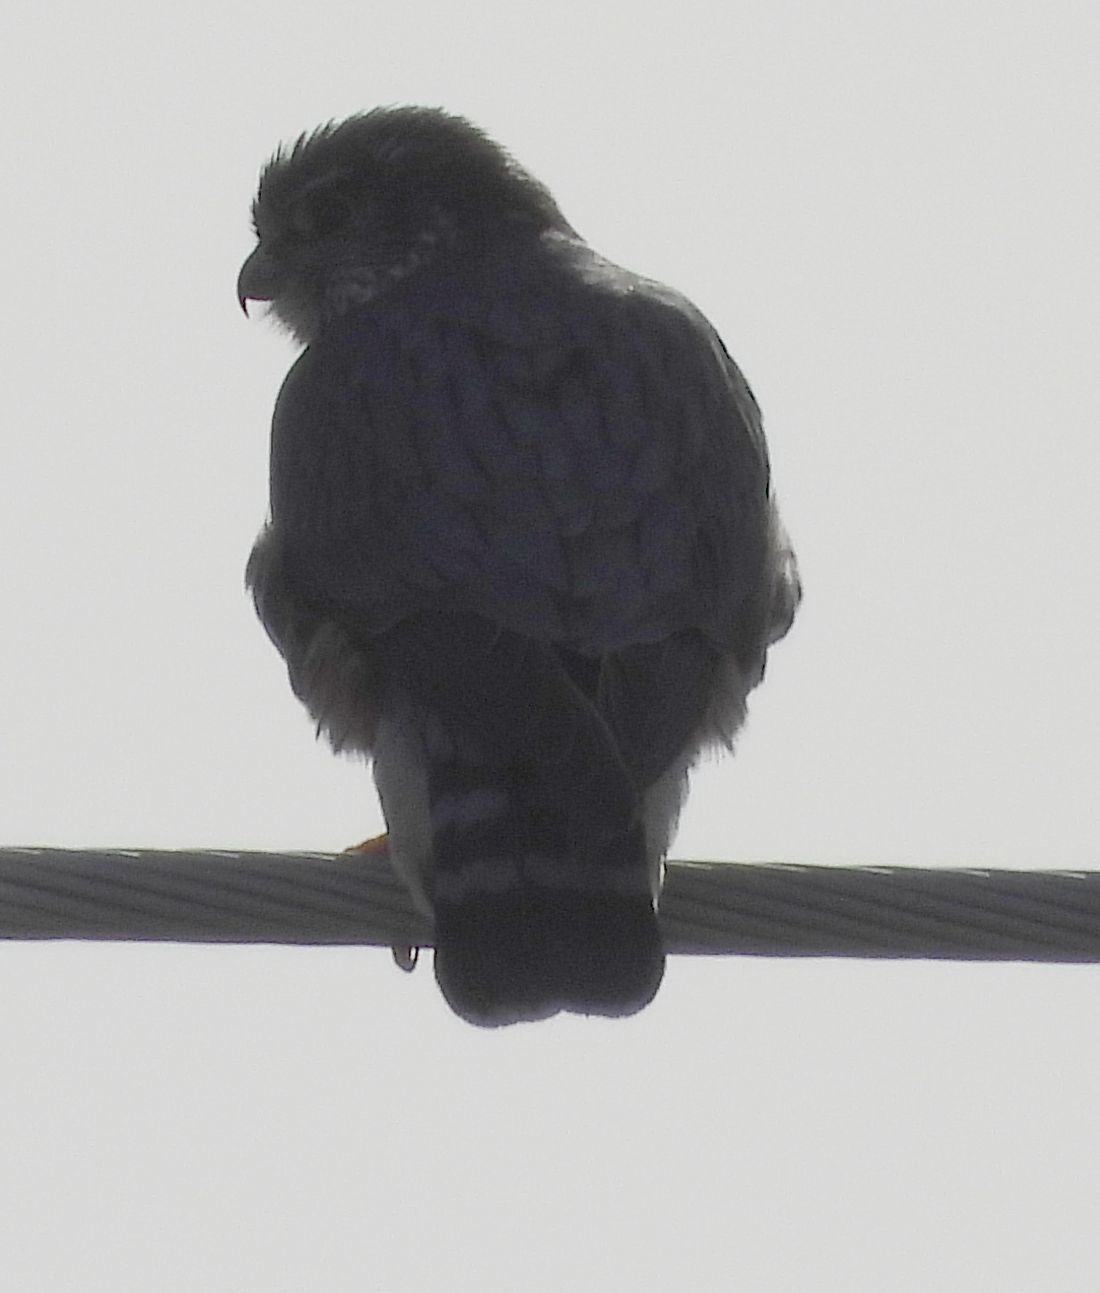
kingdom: Animalia
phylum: Chordata
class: Aves
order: Falconiformes
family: Falconidae
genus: Falco
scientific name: Falco columbarius
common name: Merlin
